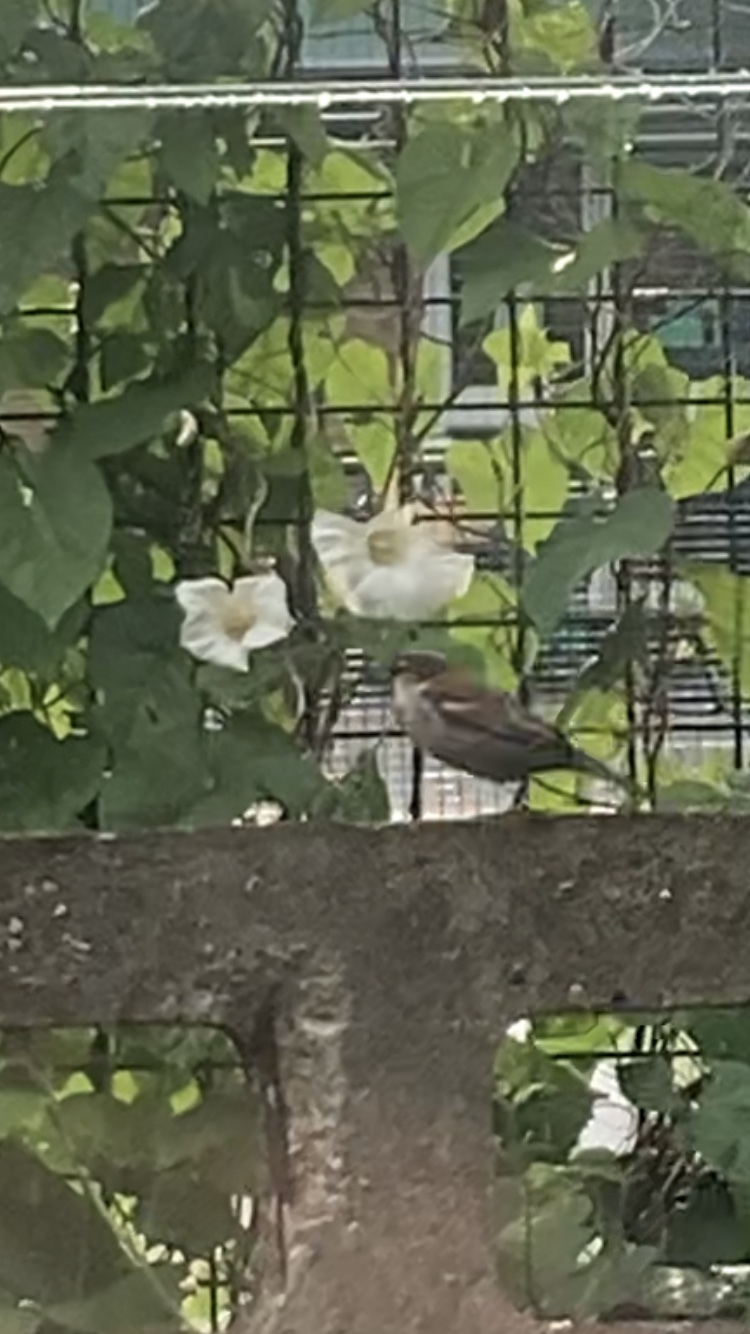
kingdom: Animalia
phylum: Chordata
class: Aves
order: Passeriformes
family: Passeridae
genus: Passer
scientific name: Passer domesticus
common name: House sparrow
